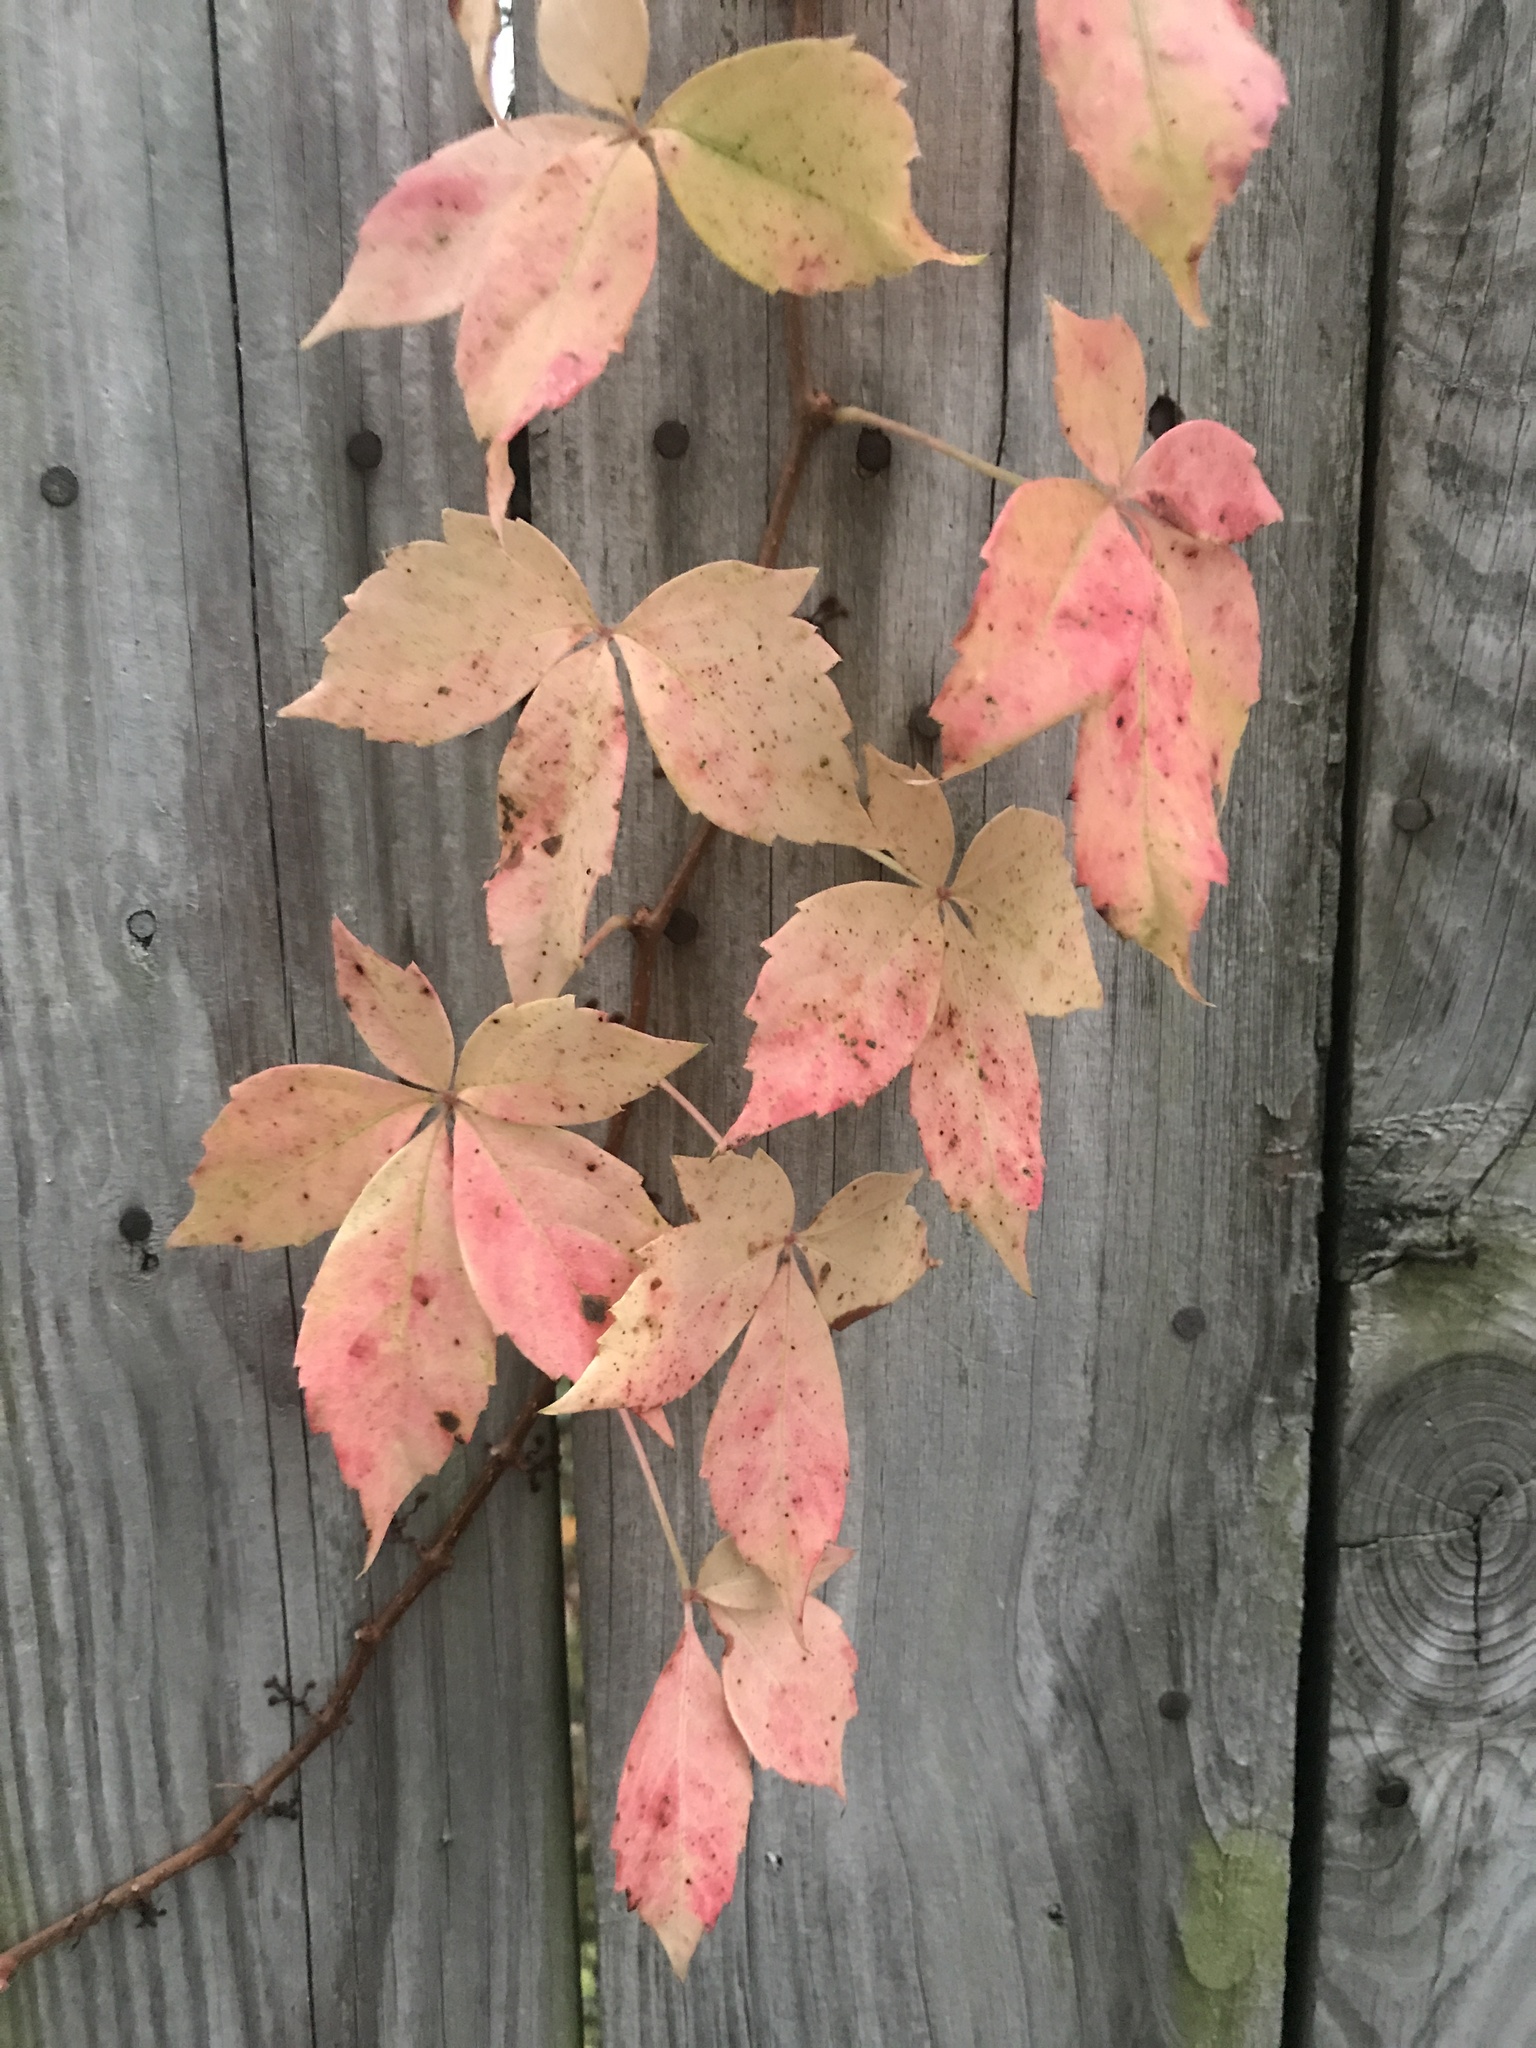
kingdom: Plantae
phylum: Tracheophyta
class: Magnoliopsida
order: Vitales
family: Vitaceae
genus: Parthenocissus
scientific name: Parthenocissus quinquefolia
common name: Virginia-creeper
